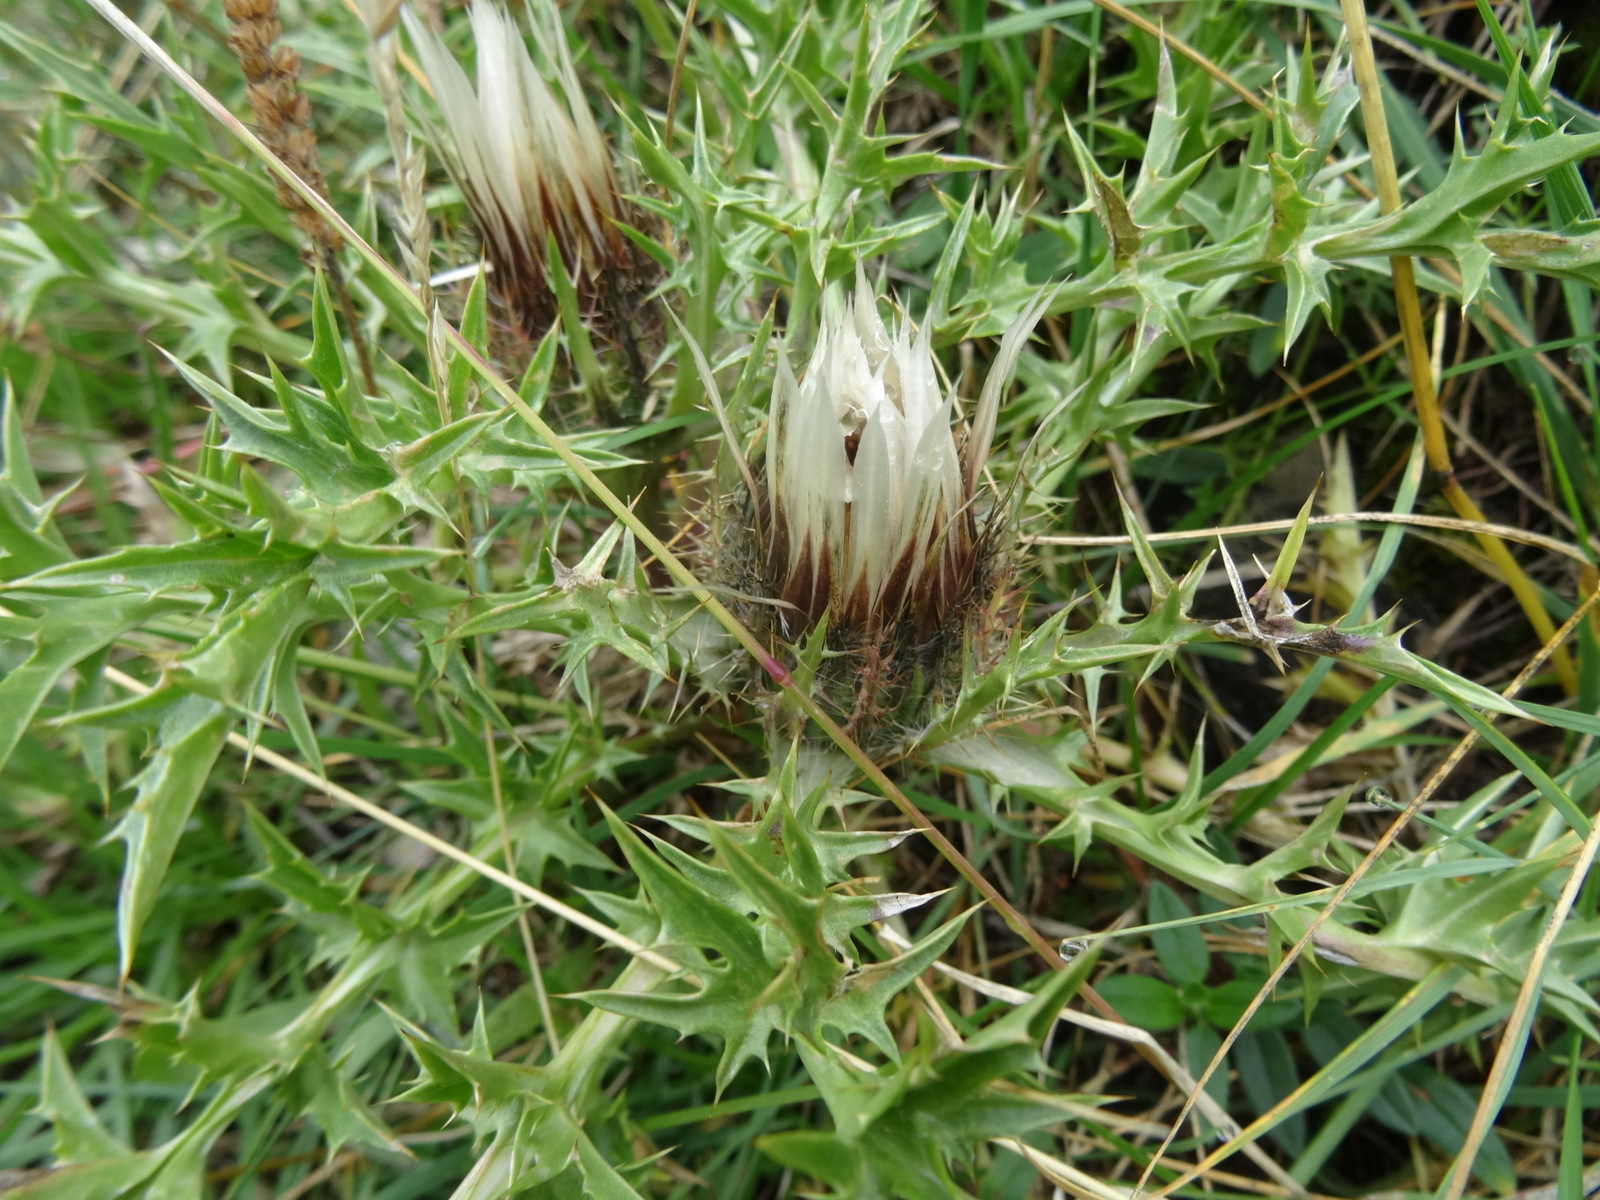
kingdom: Plantae
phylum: Tracheophyta
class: Magnoliopsida
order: Asterales
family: Asteraceae
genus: Carlina
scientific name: Carlina acaulis
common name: Stemless carline thistle
